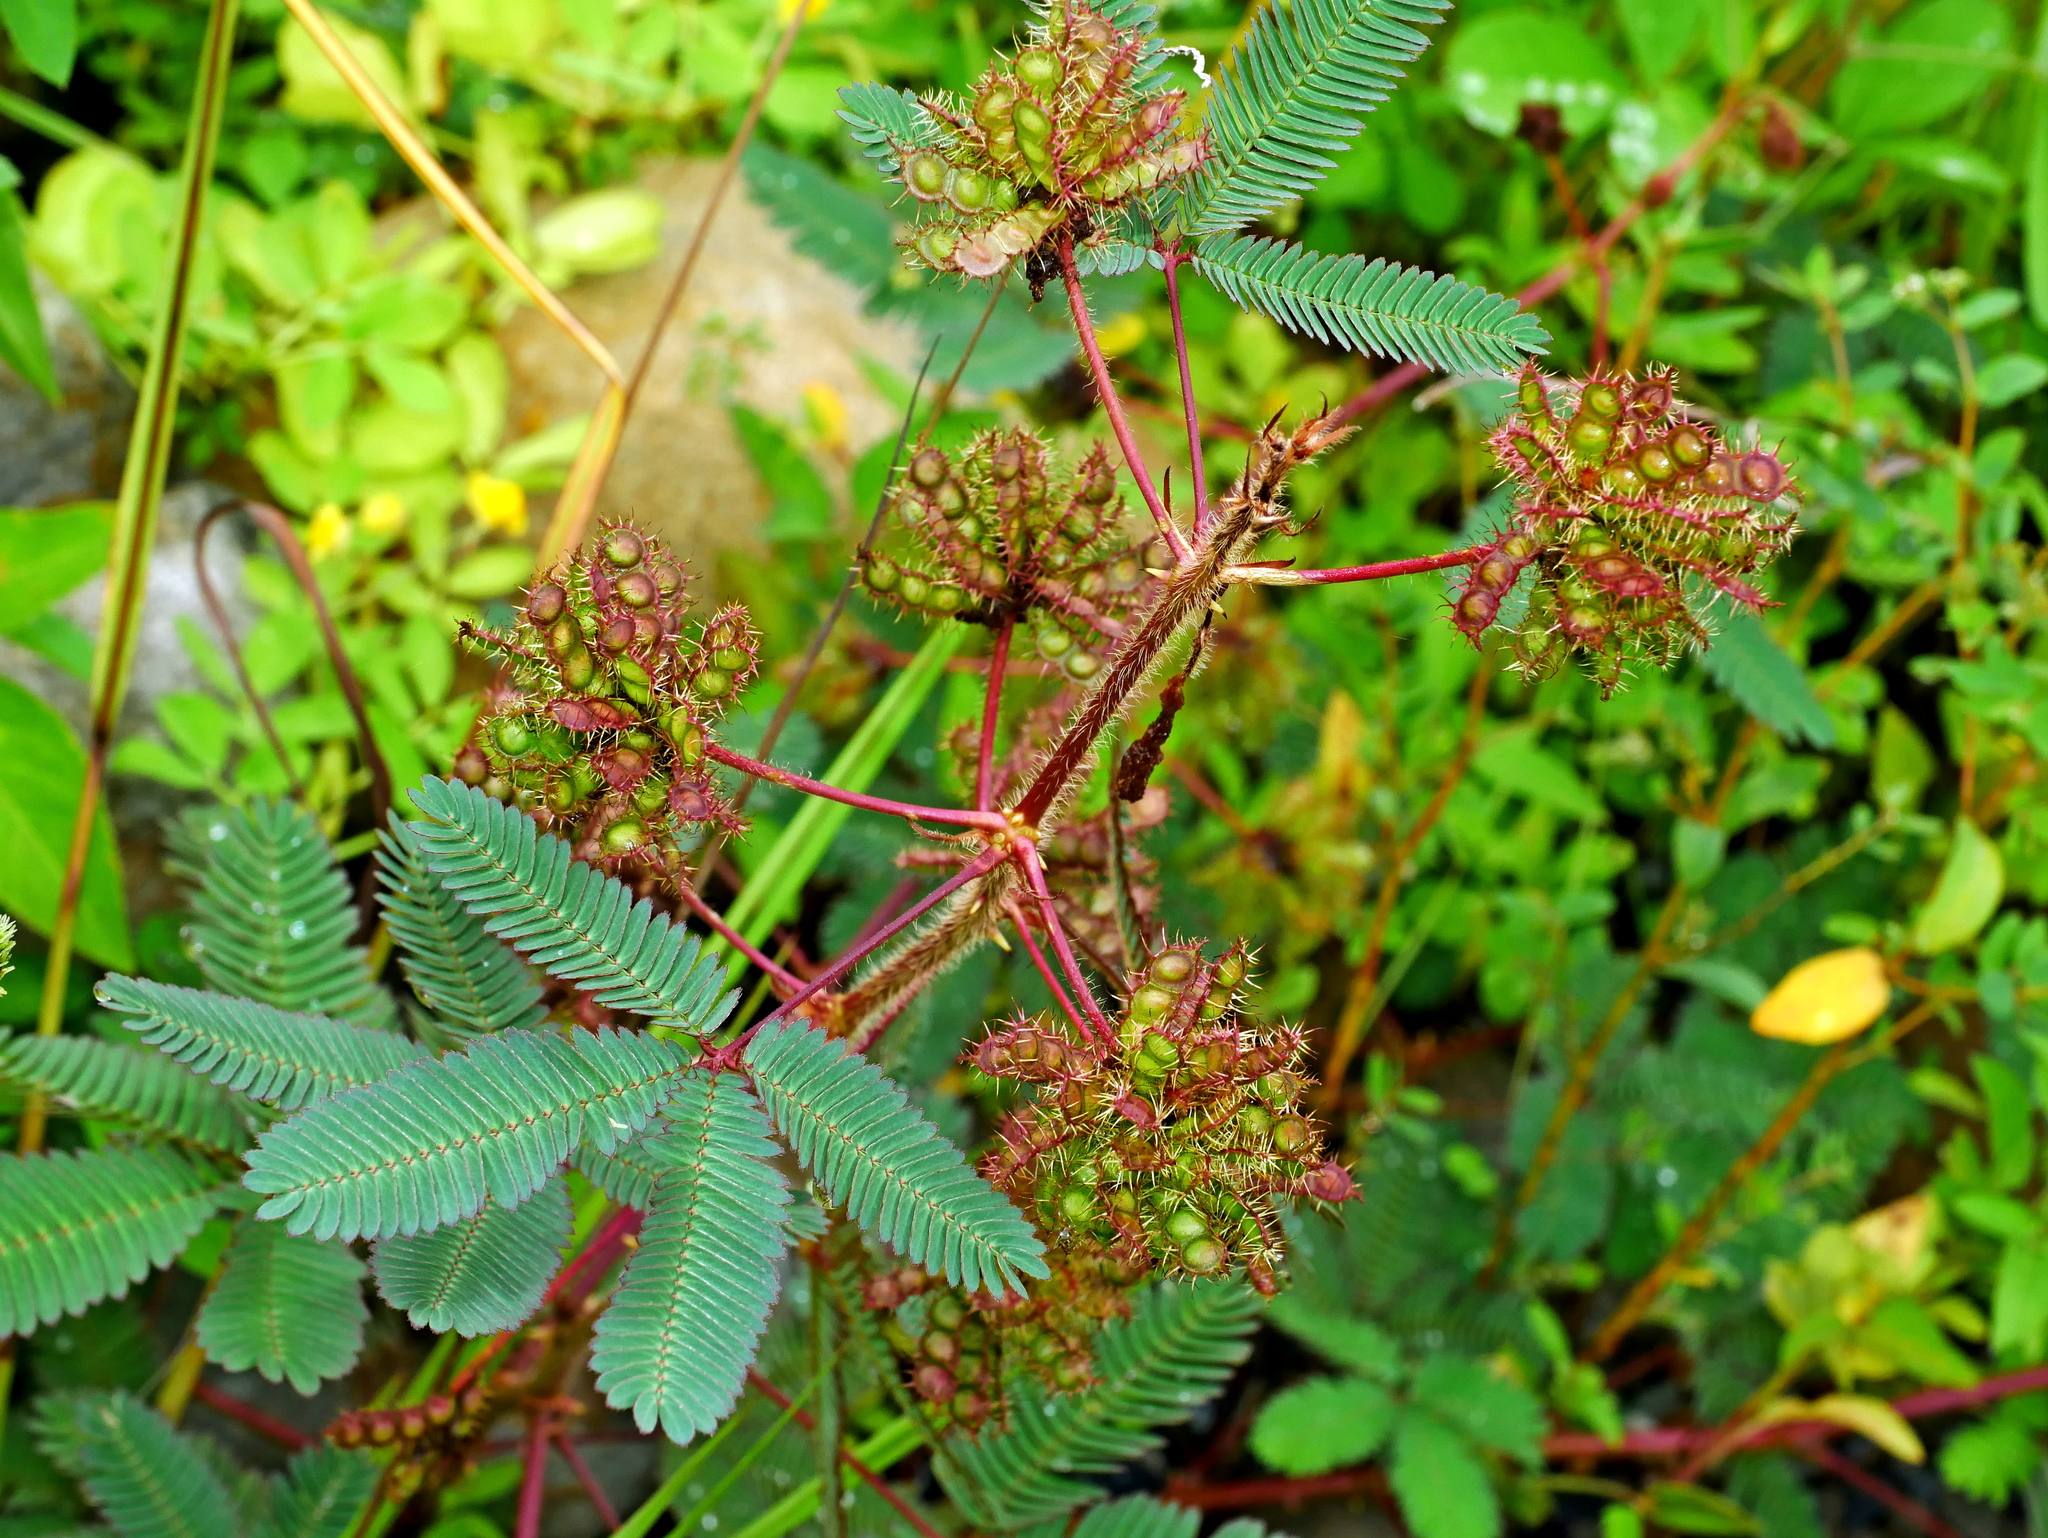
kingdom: Plantae
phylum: Tracheophyta
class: Magnoliopsida
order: Fabales
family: Fabaceae
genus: Mimosa
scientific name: Mimosa pudica
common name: Sensitive plant
